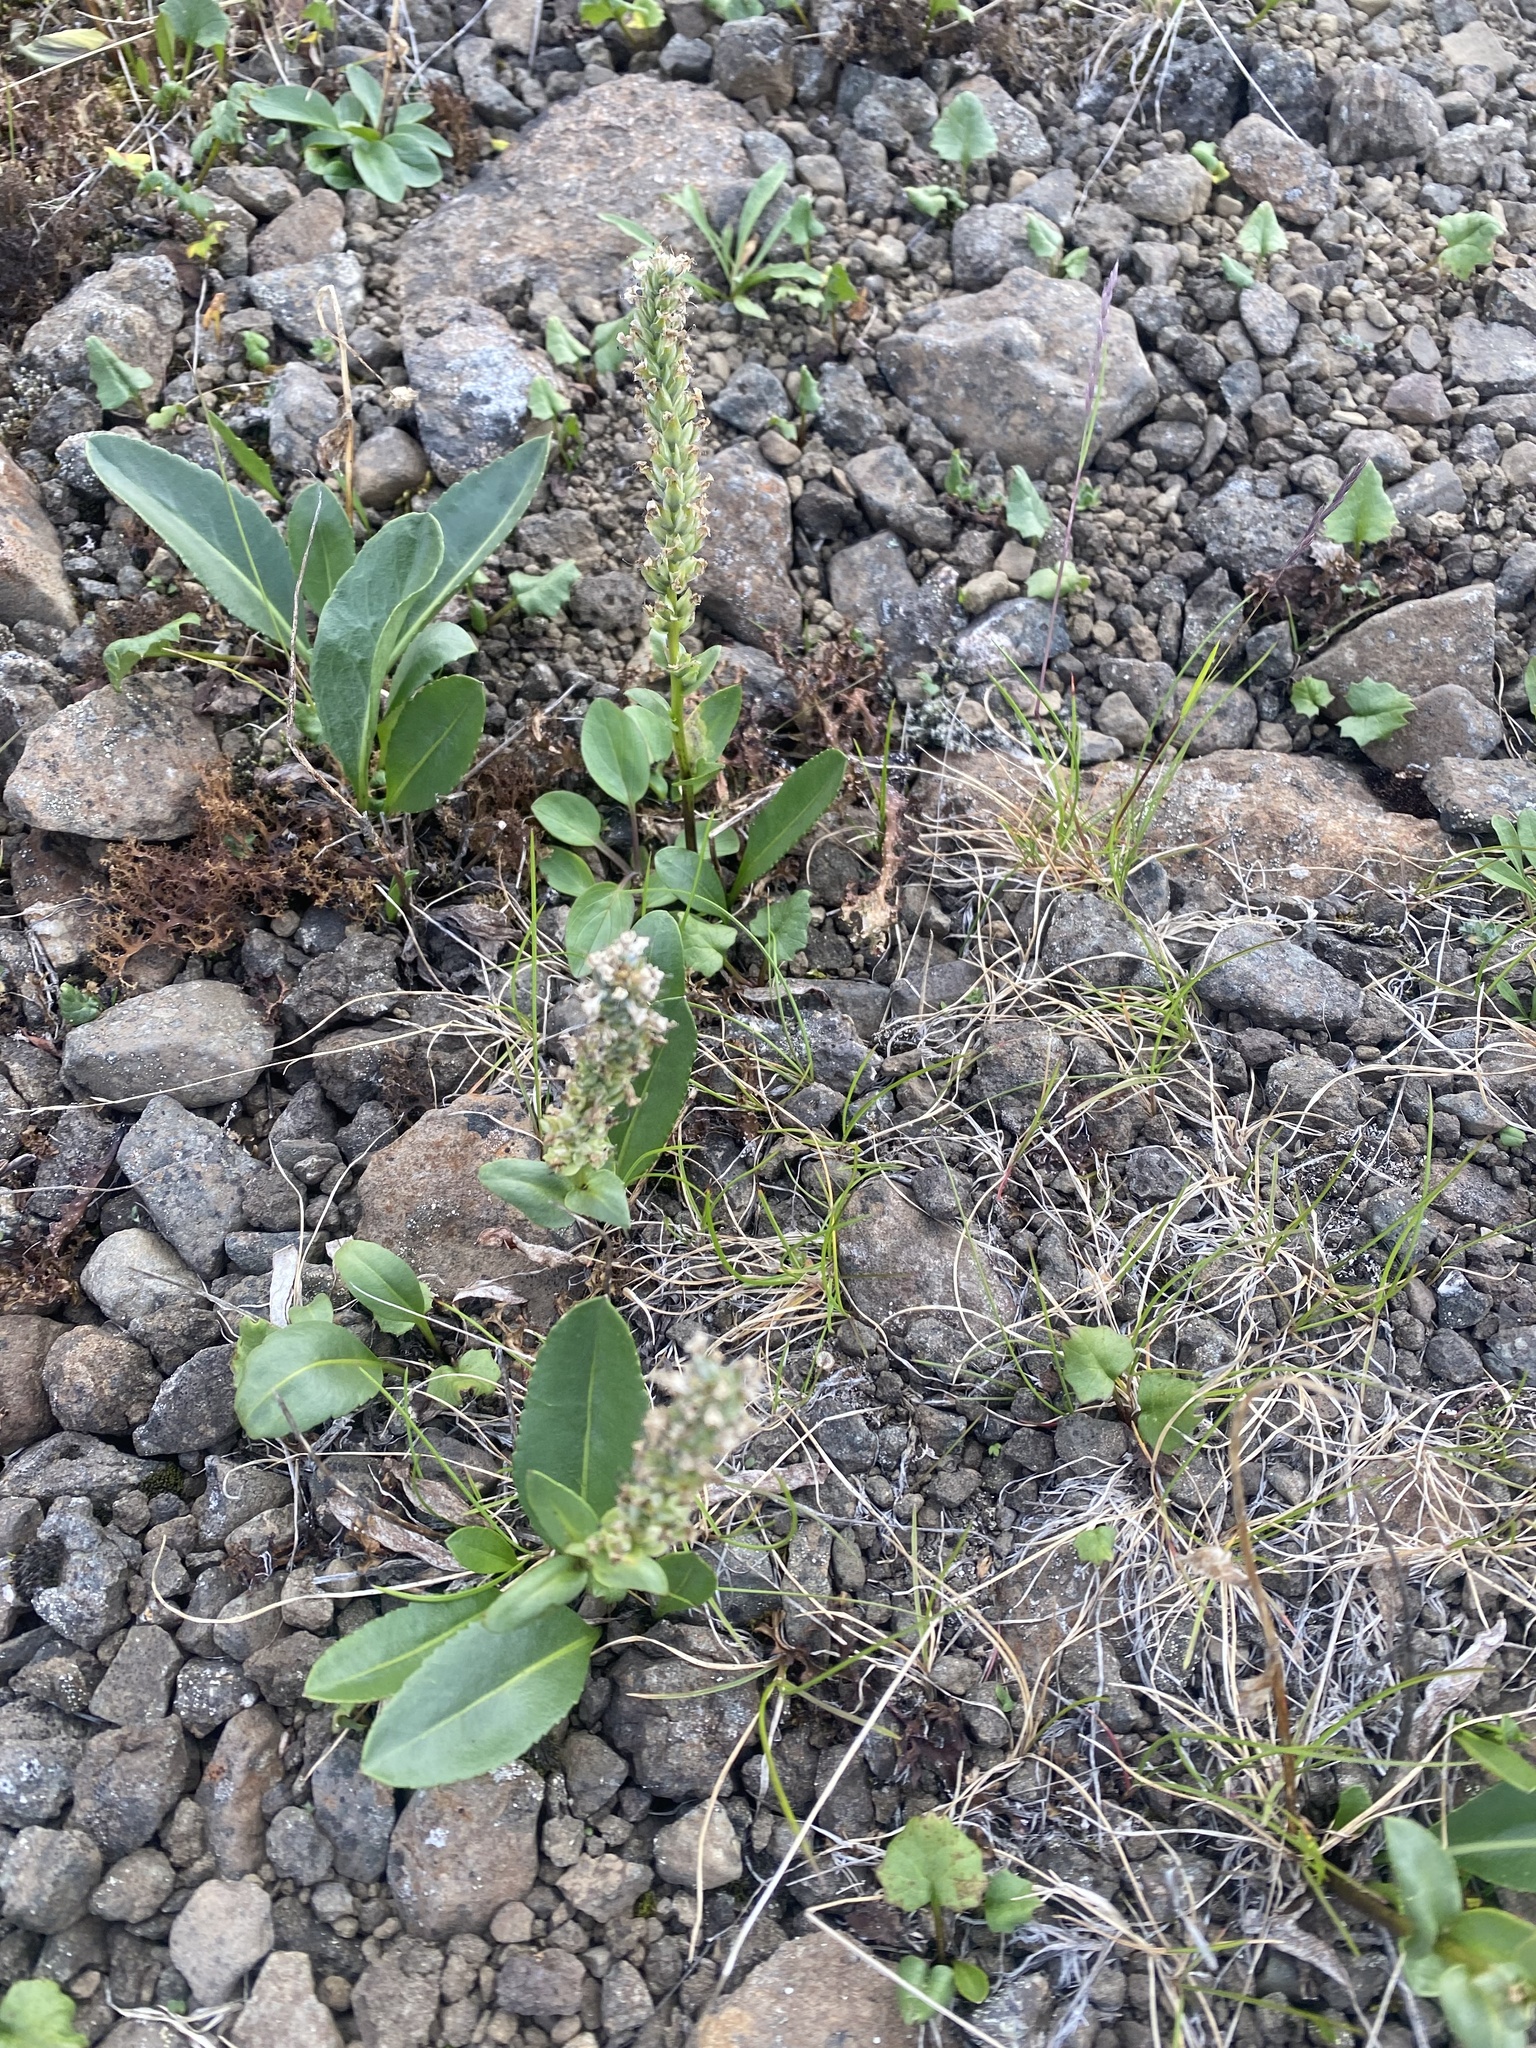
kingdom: Plantae
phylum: Tracheophyta
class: Magnoliopsida
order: Lamiales
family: Plantaginaceae
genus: Lagotis
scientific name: Lagotis glauca
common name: Glaucous weaselsnout
